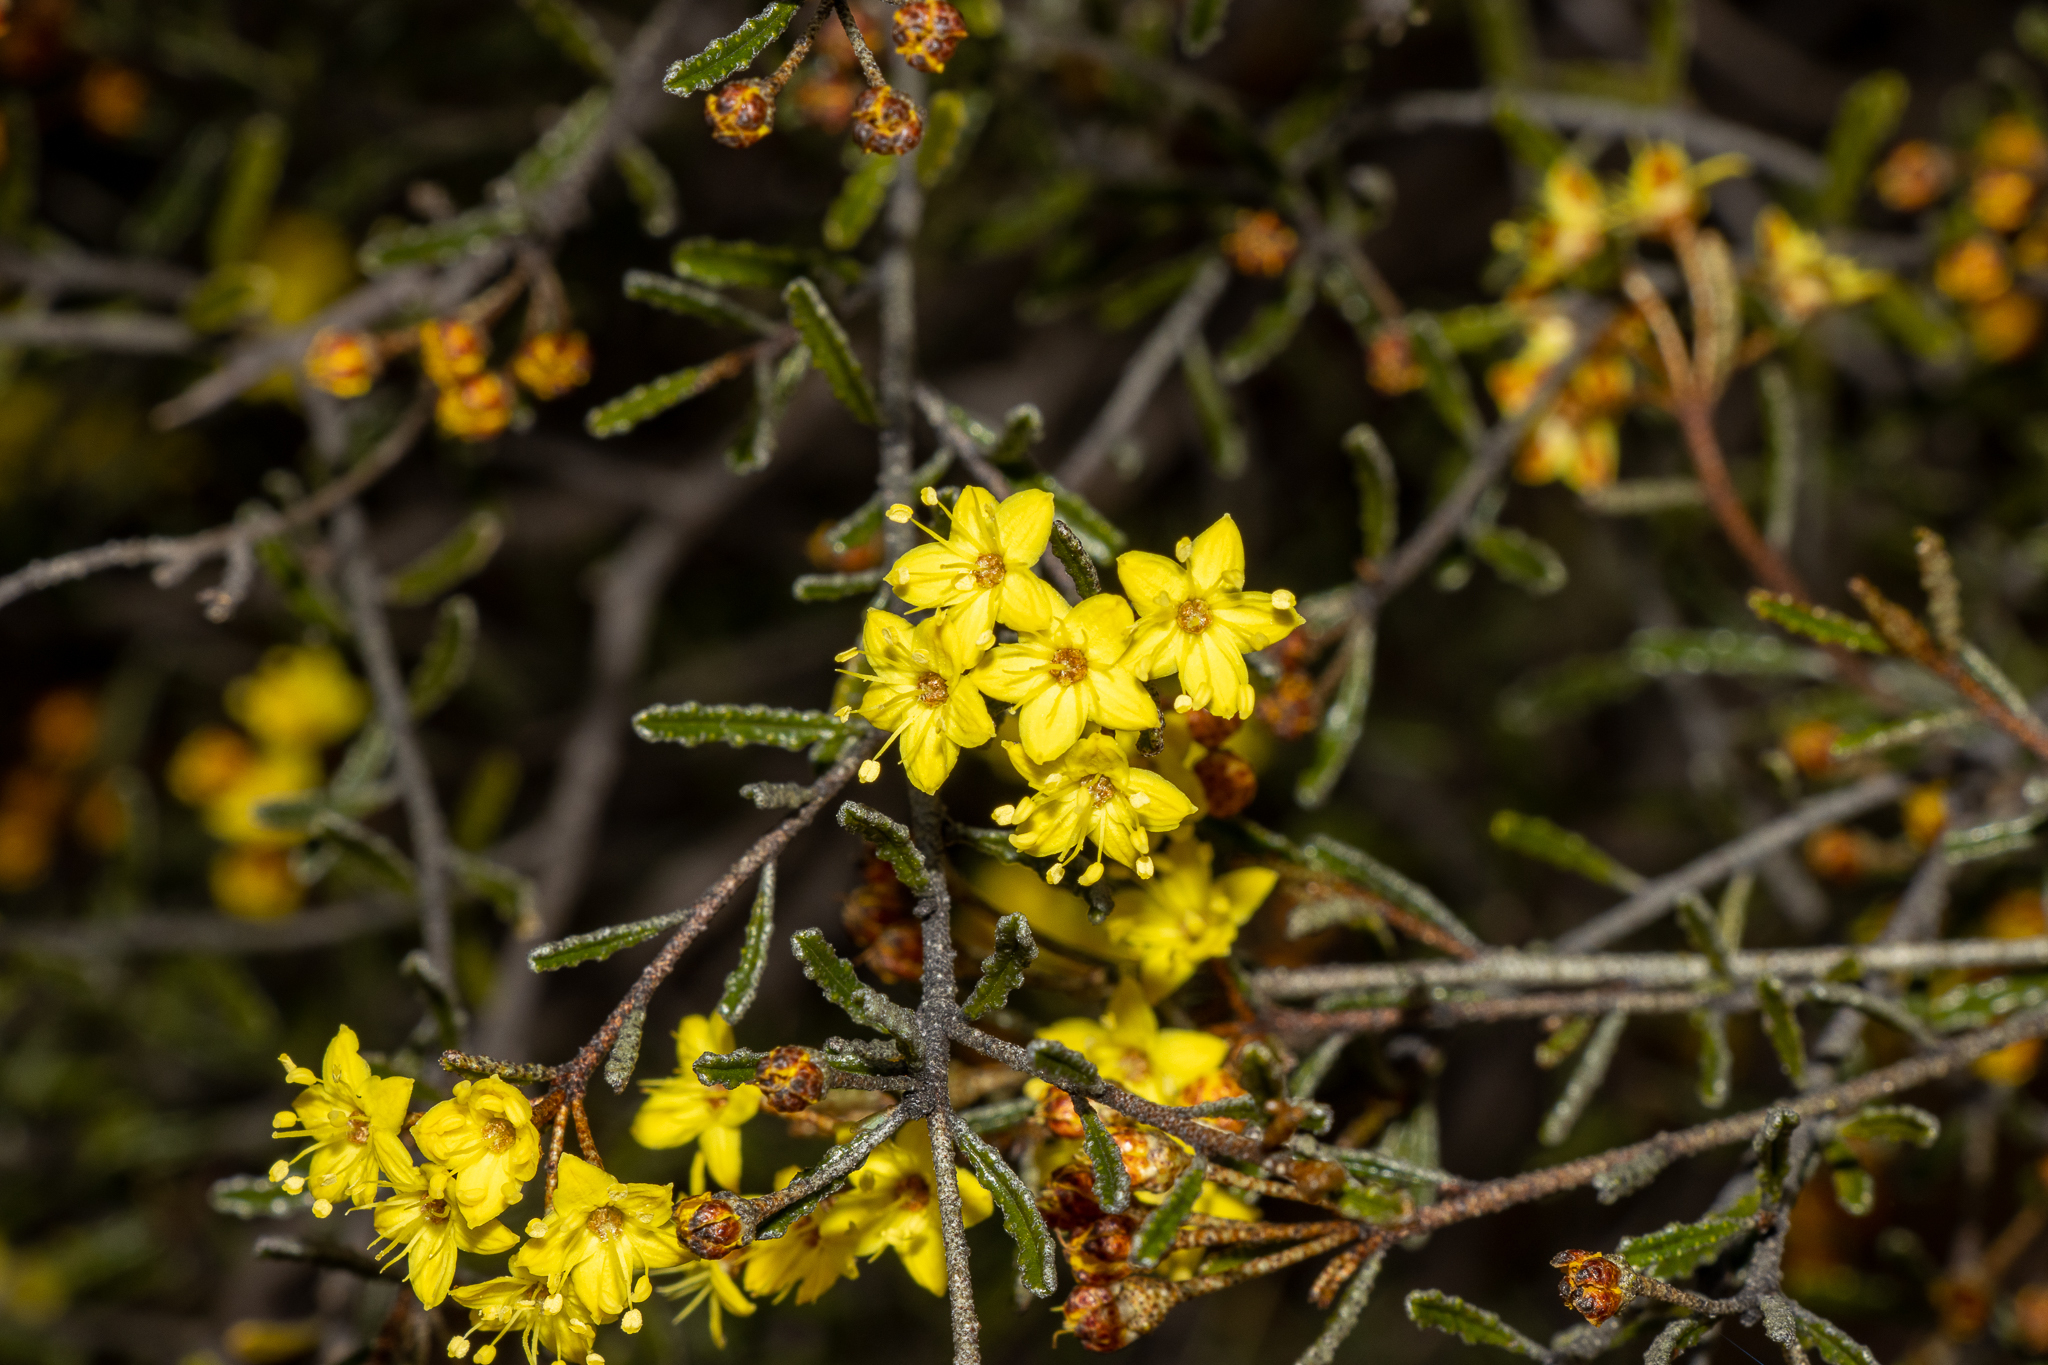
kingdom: Plantae
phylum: Tracheophyta
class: Magnoliopsida
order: Sapindales
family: Rutaceae
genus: Phebalium
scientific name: Phebalium bullatum
